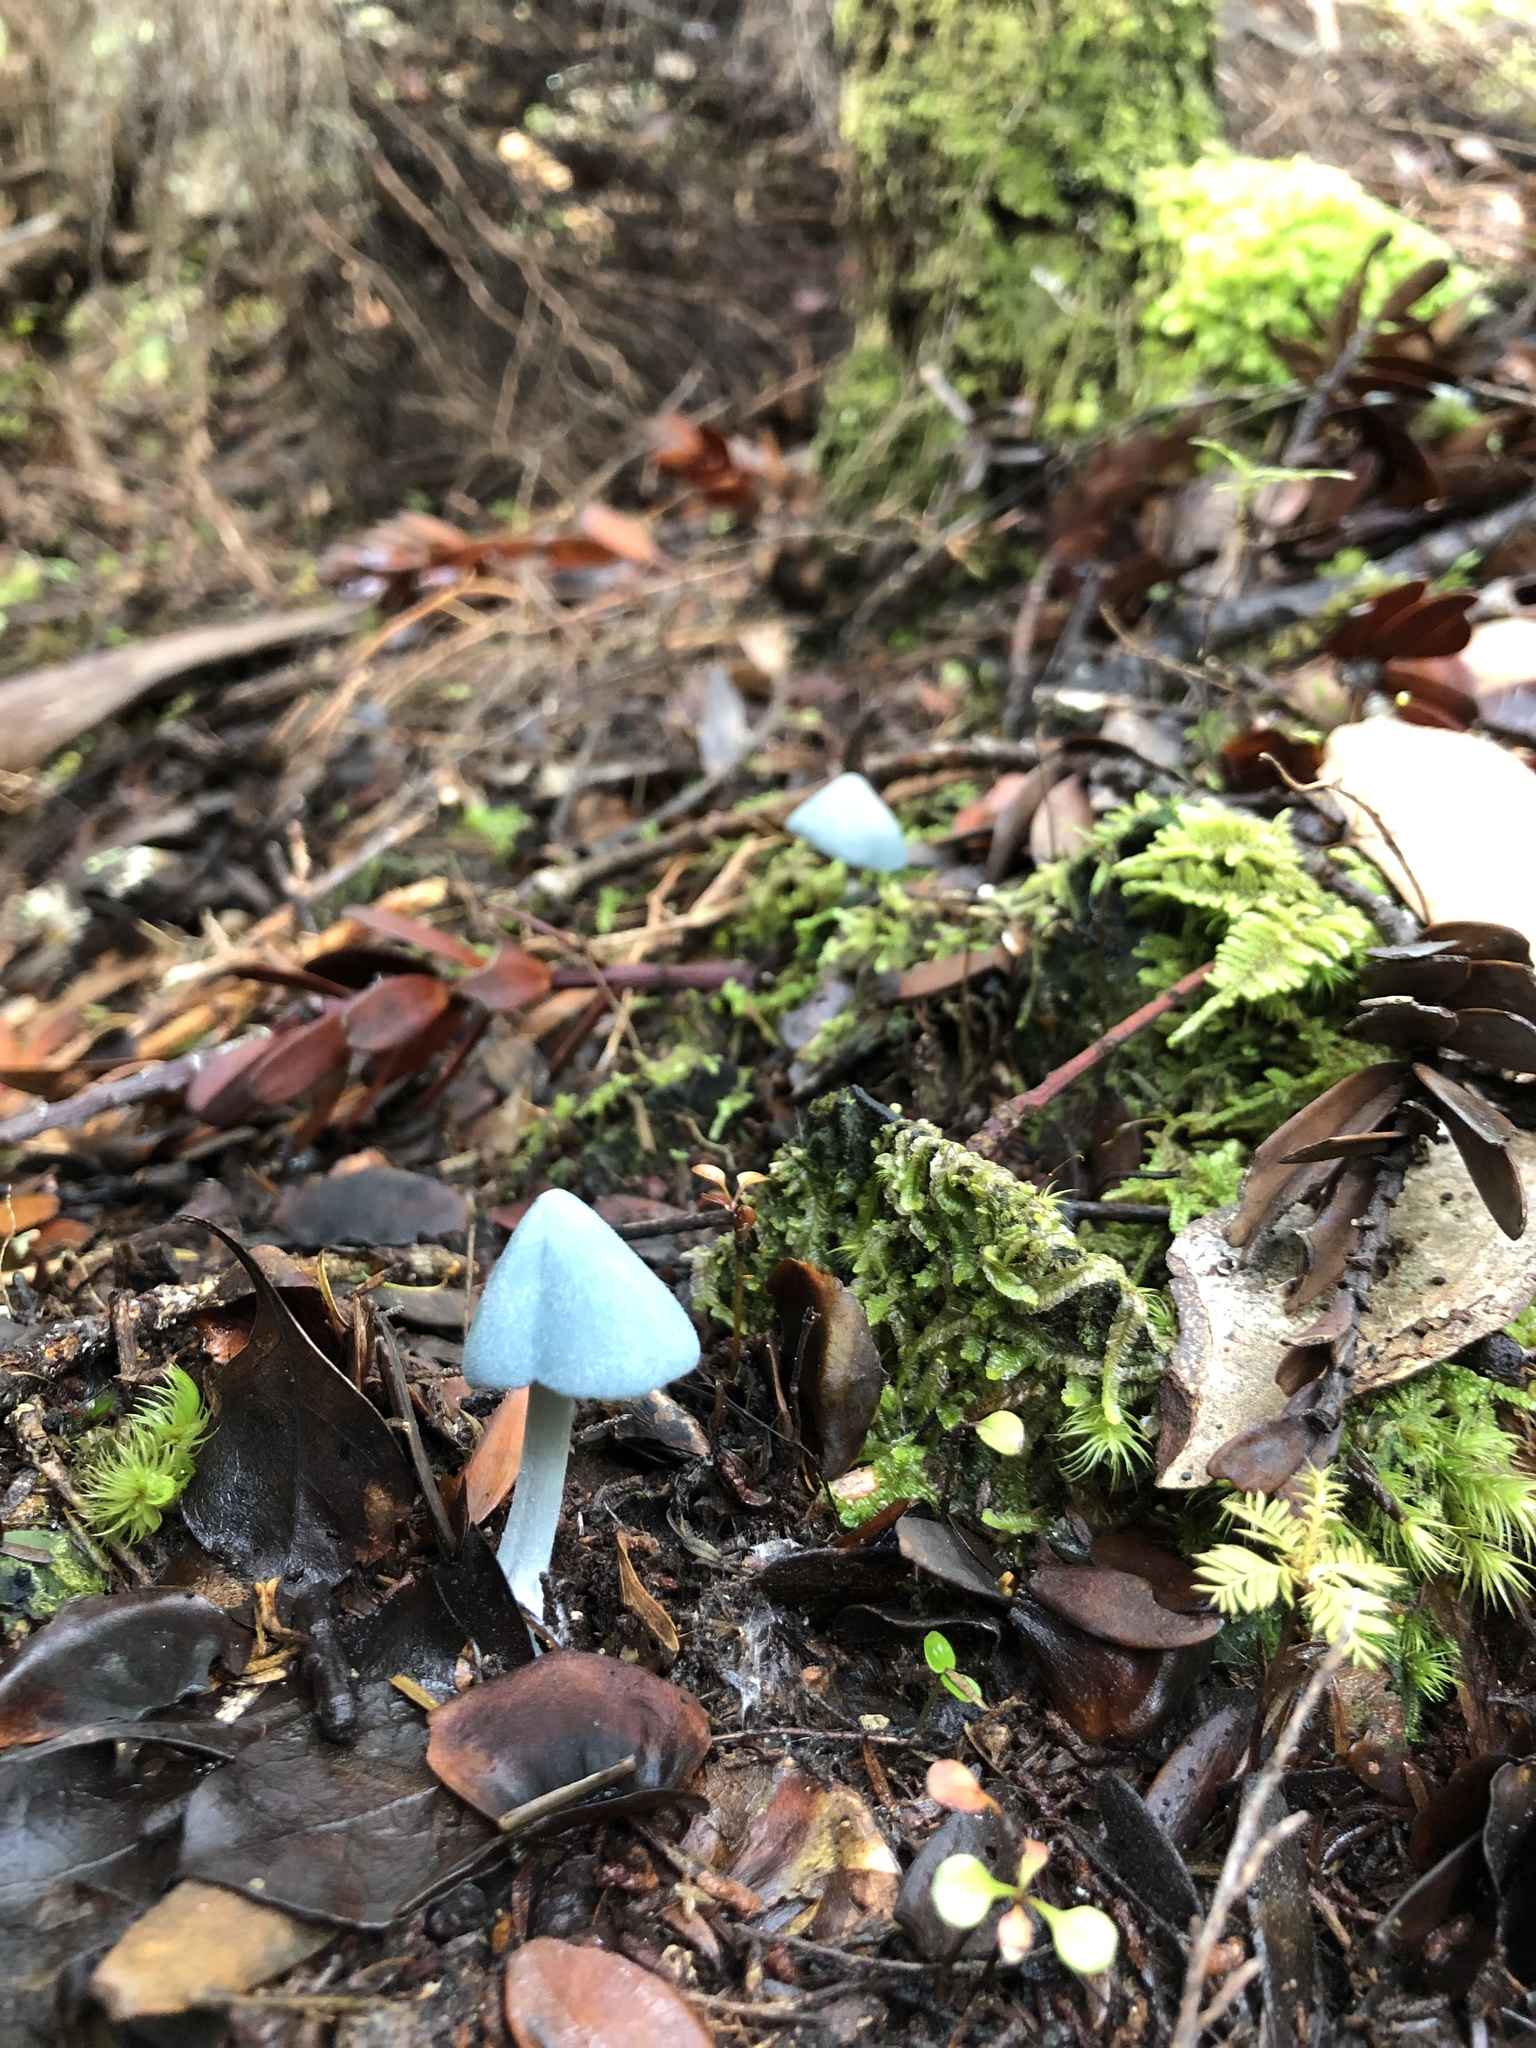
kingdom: Fungi
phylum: Basidiomycota
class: Agaricomycetes
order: Agaricales
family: Entolomataceae
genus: Entoloma
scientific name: Entoloma hochstetteri
